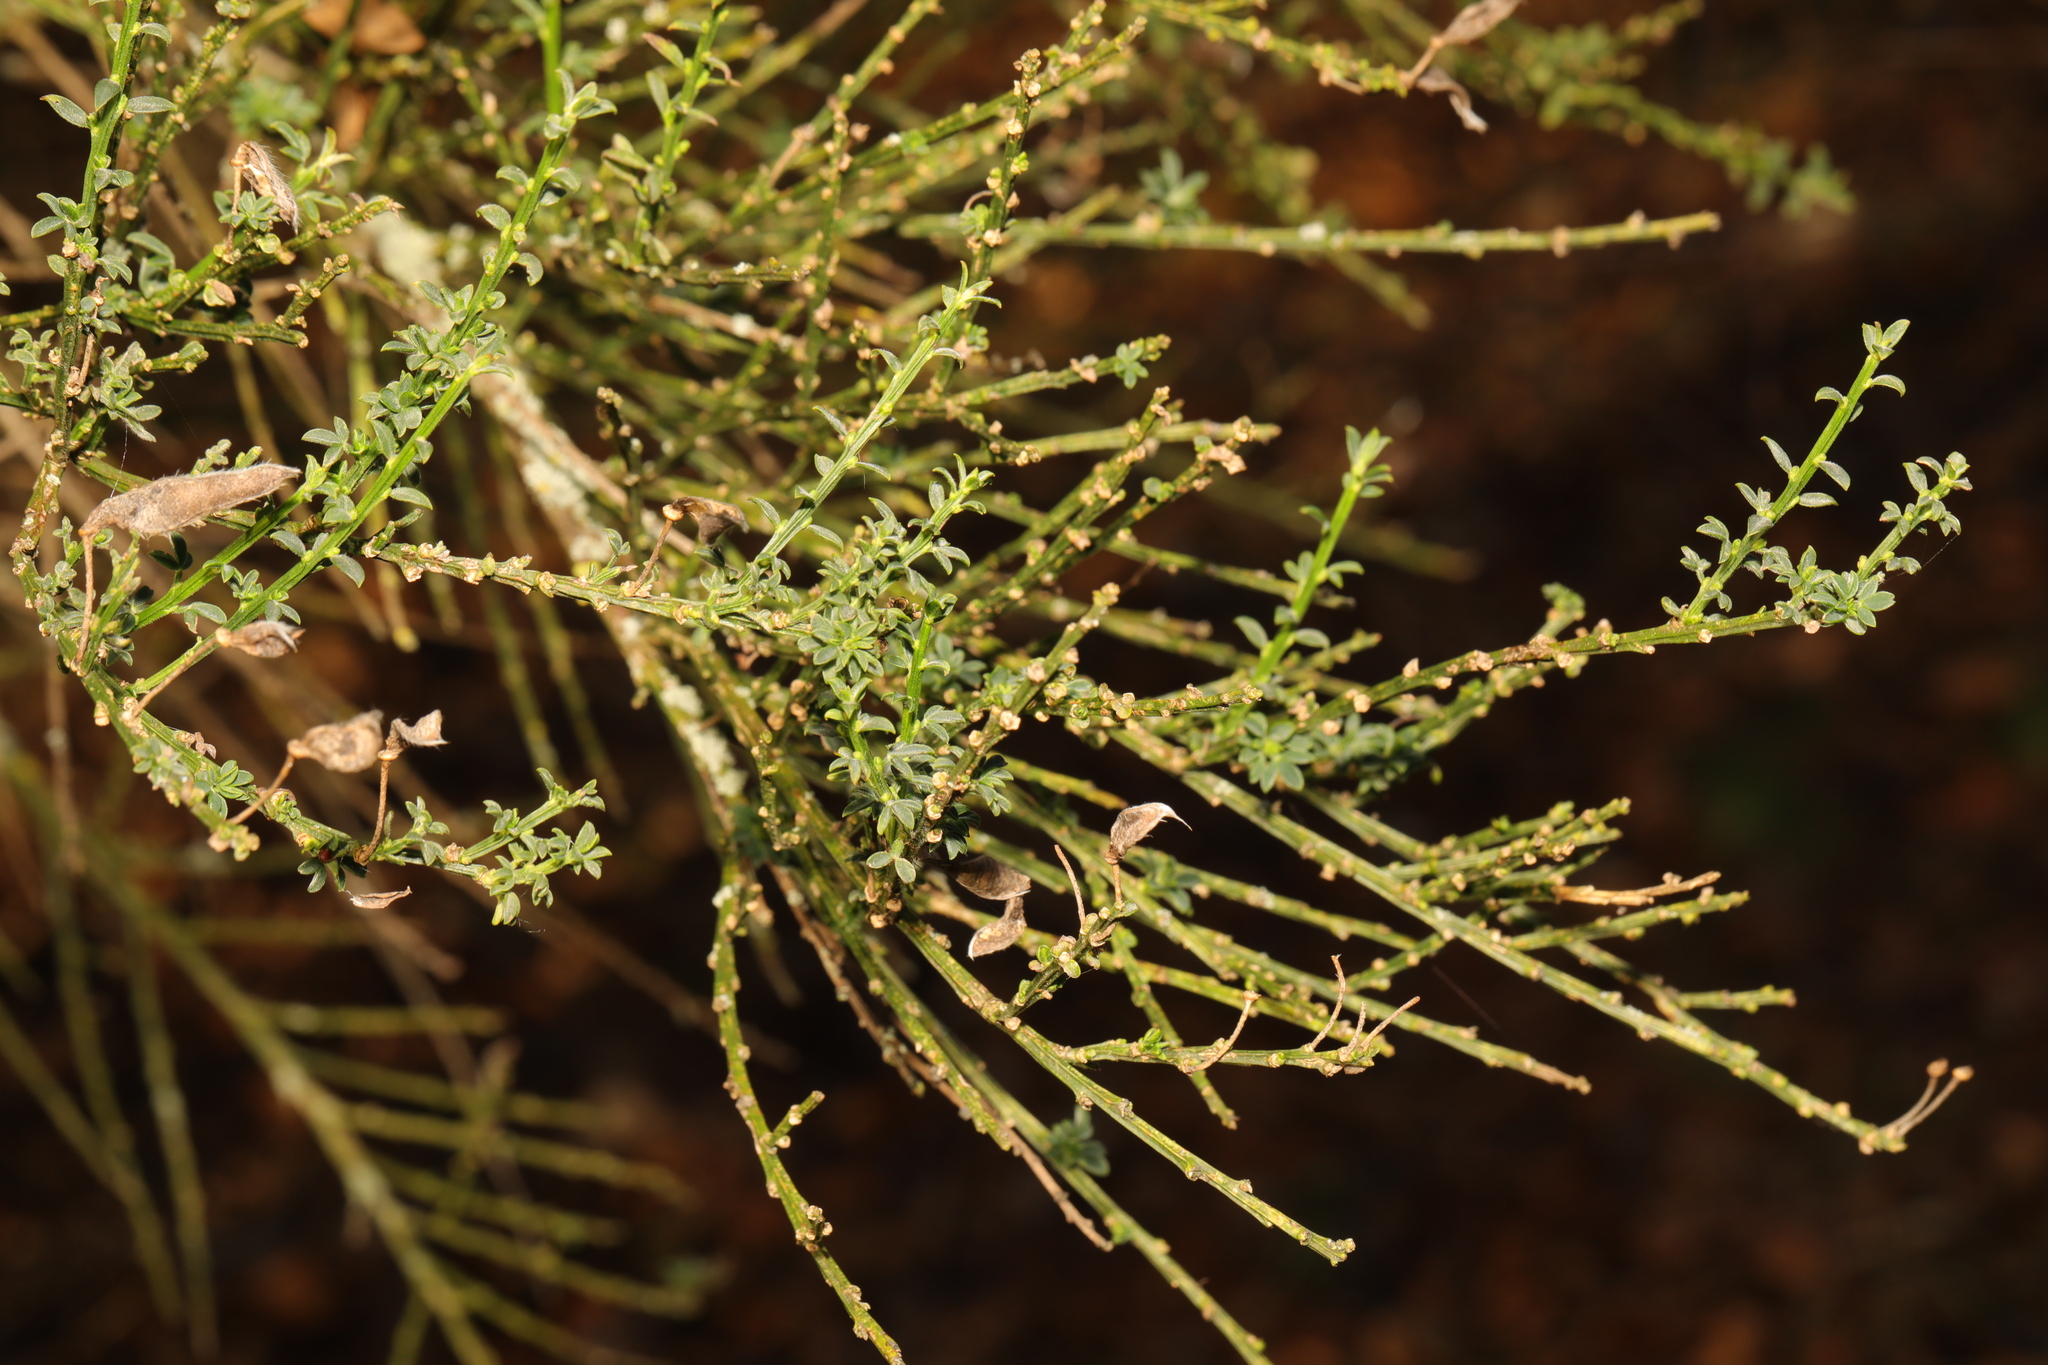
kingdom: Plantae
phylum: Tracheophyta
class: Magnoliopsida
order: Fabales
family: Fabaceae
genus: Cytisus
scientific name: Cytisus scoparius
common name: Scotch broom
